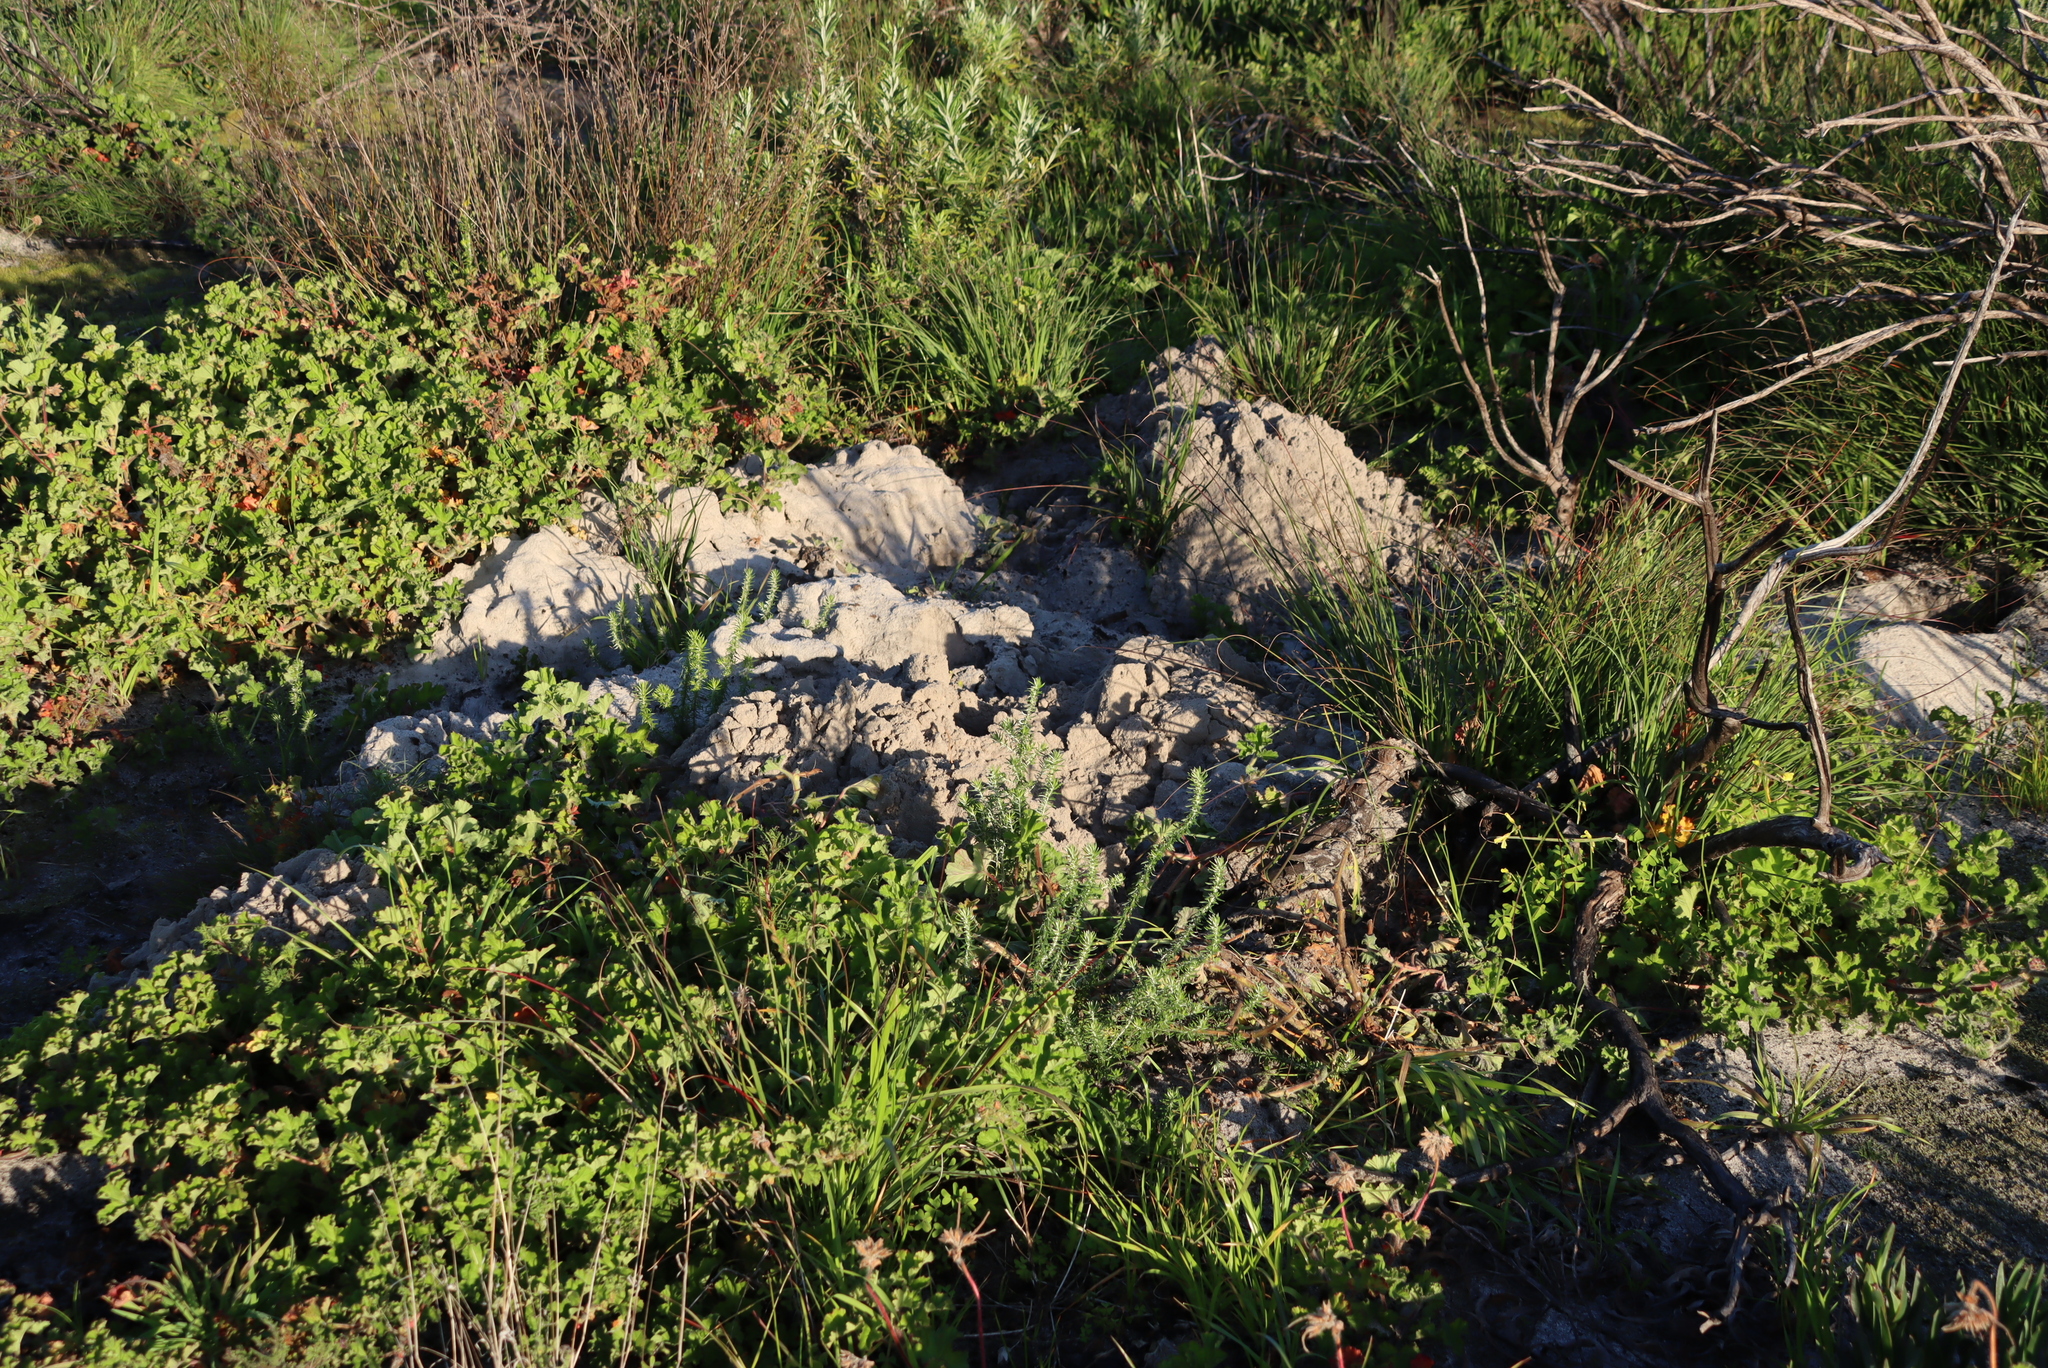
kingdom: Animalia
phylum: Chordata
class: Mammalia
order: Rodentia
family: Bathyergidae
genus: Bathyergus
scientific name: Bathyergus suillus
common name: Cape dune mole rat
